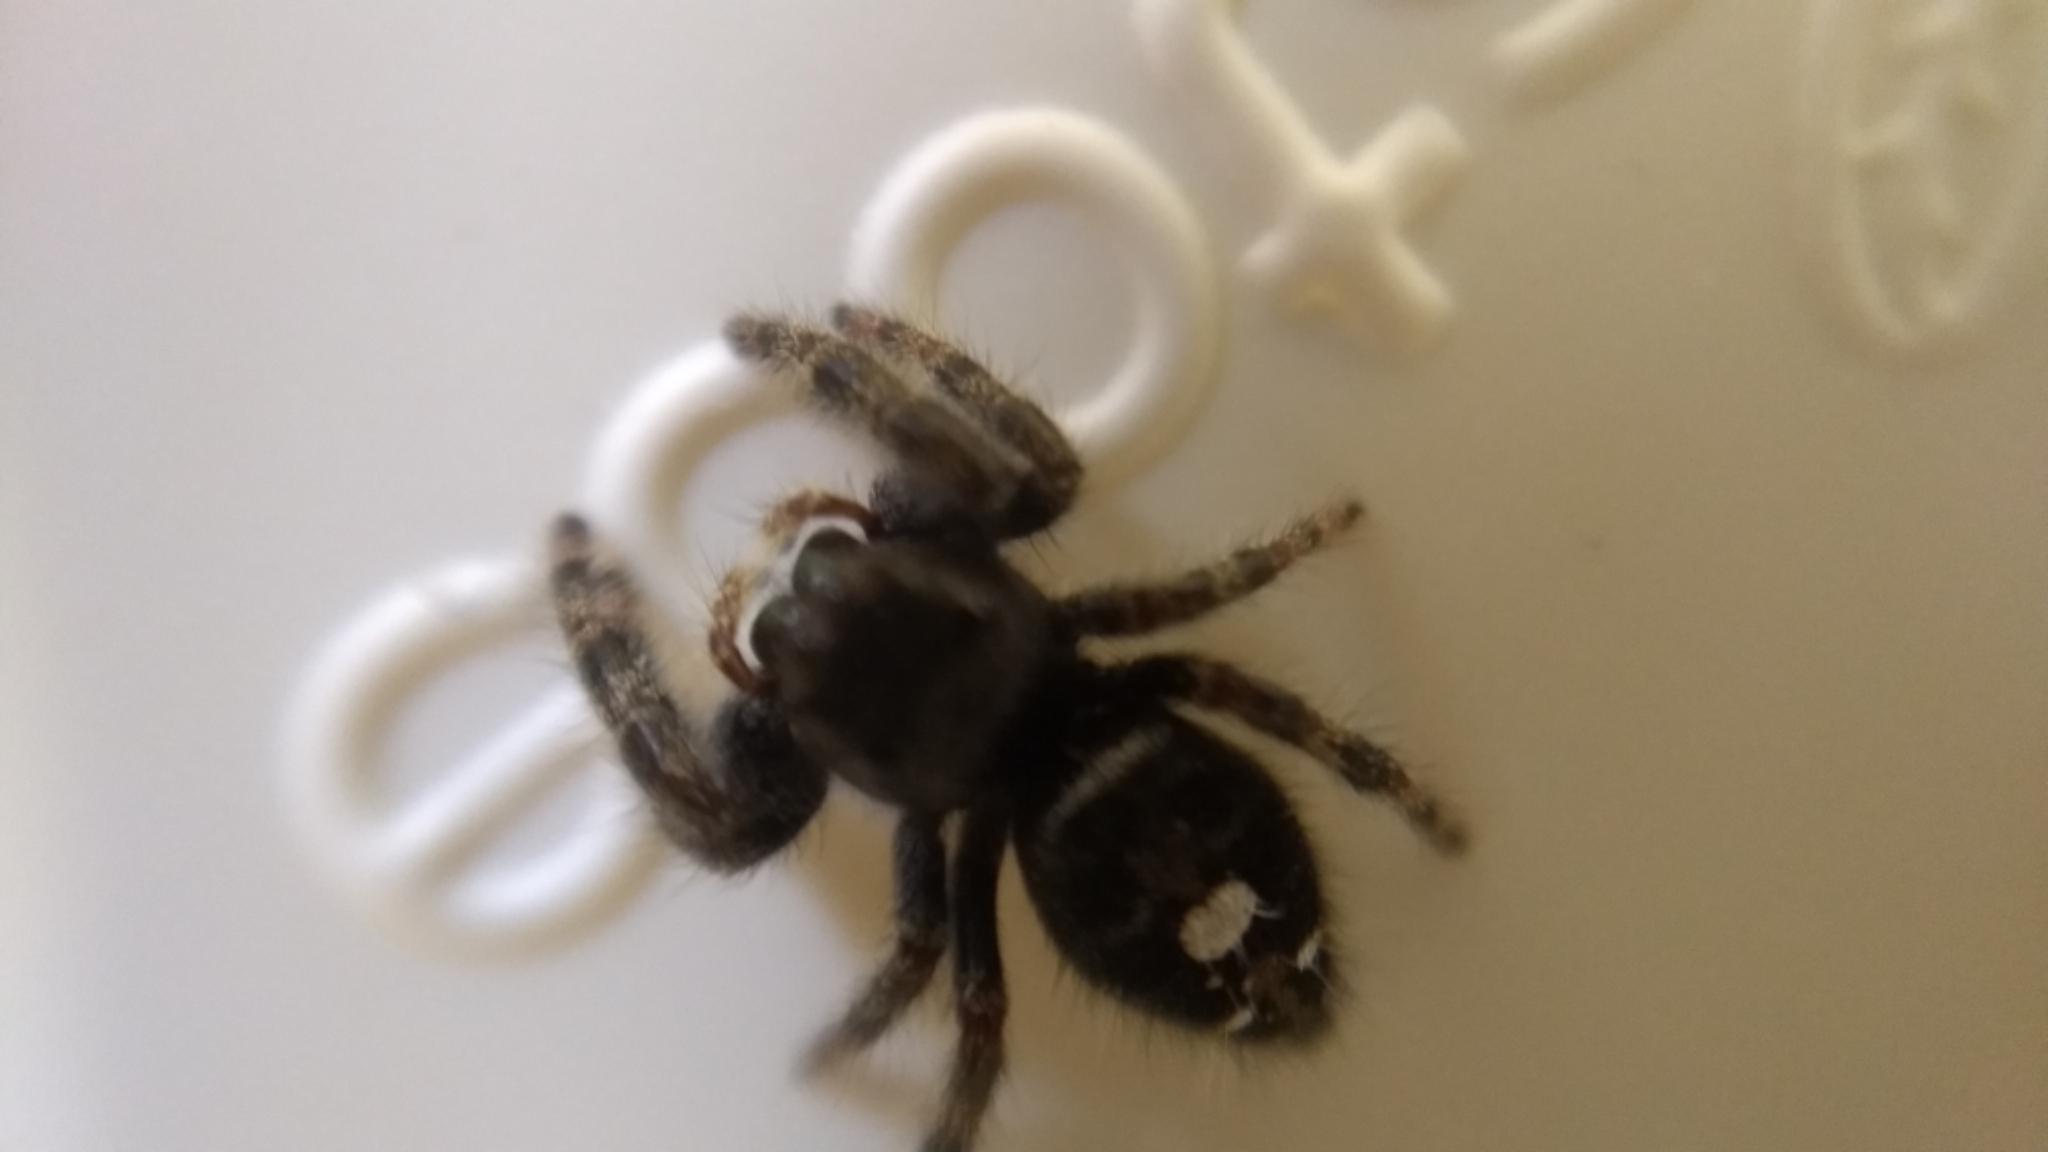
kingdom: Animalia
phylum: Arthropoda
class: Arachnida
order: Araneae
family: Salticidae
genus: Phidippus
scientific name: Phidippus audax
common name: Bold jumper
